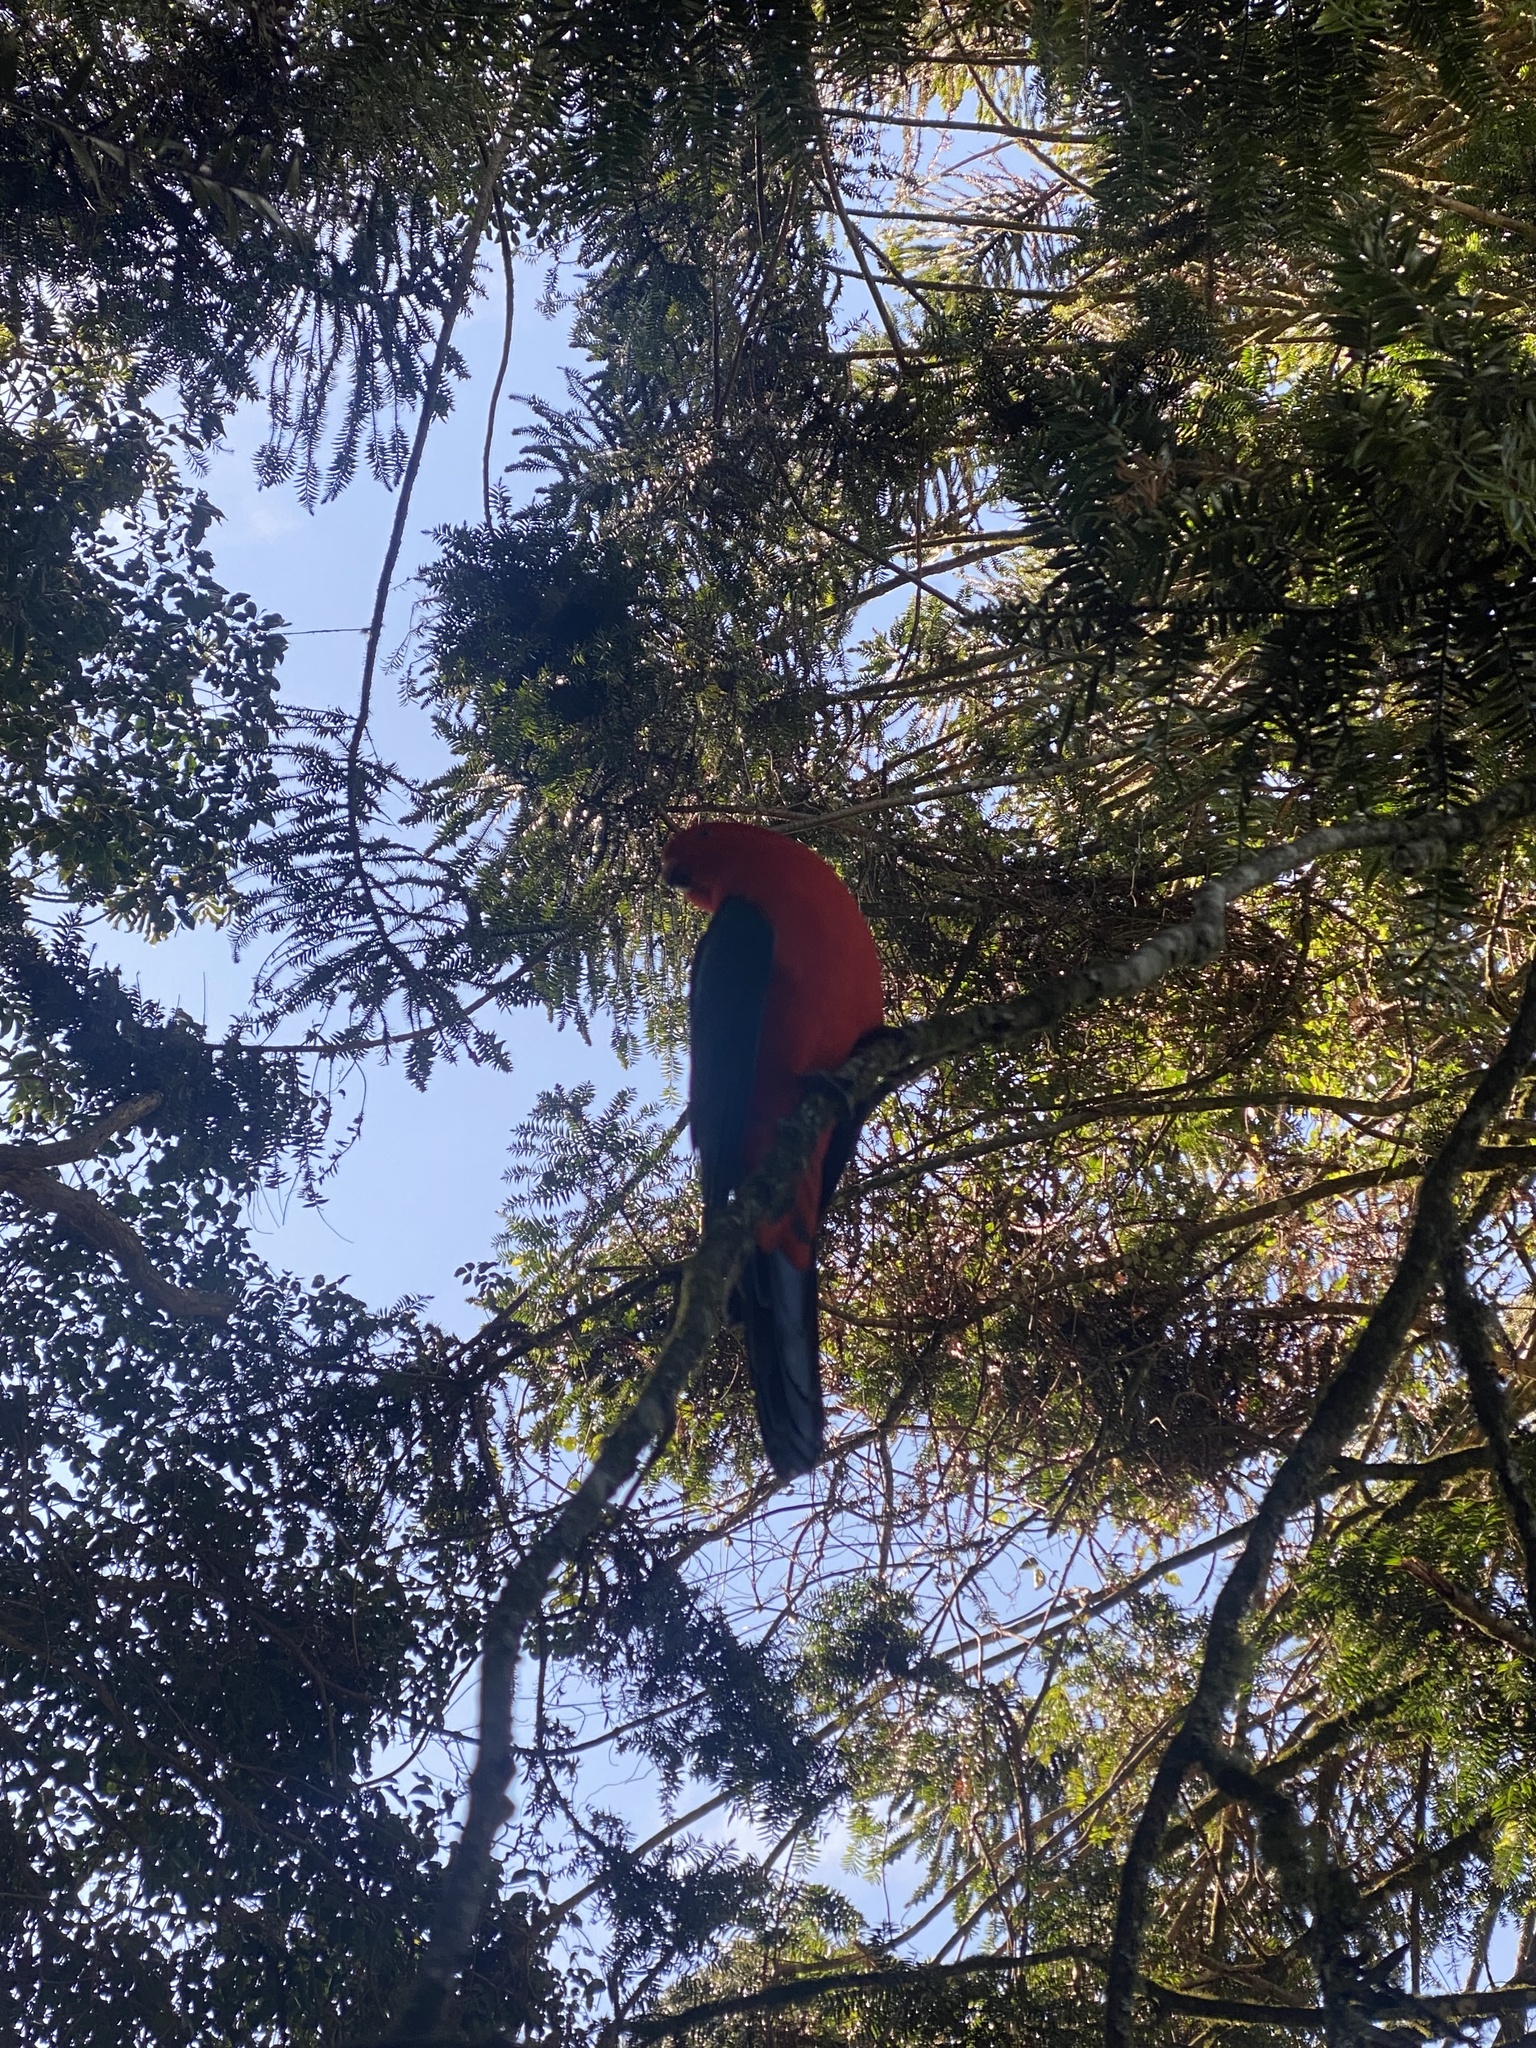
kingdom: Animalia
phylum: Chordata
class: Aves
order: Psittaciformes
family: Psittacidae
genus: Alisterus
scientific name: Alisterus scapularis
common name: Australian king parrot
